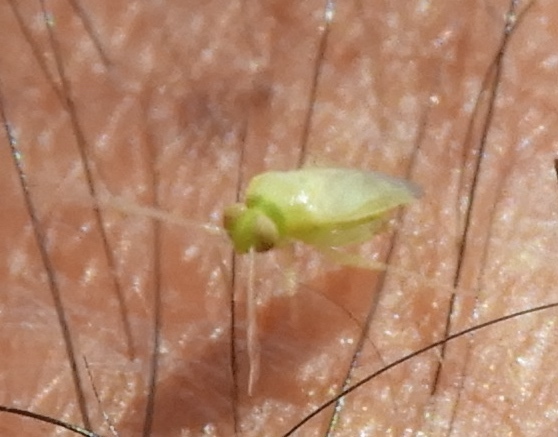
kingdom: Animalia
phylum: Arthropoda
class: Insecta
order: Hemiptera
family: Miridae
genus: Dagbertus
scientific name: Dagbertus
